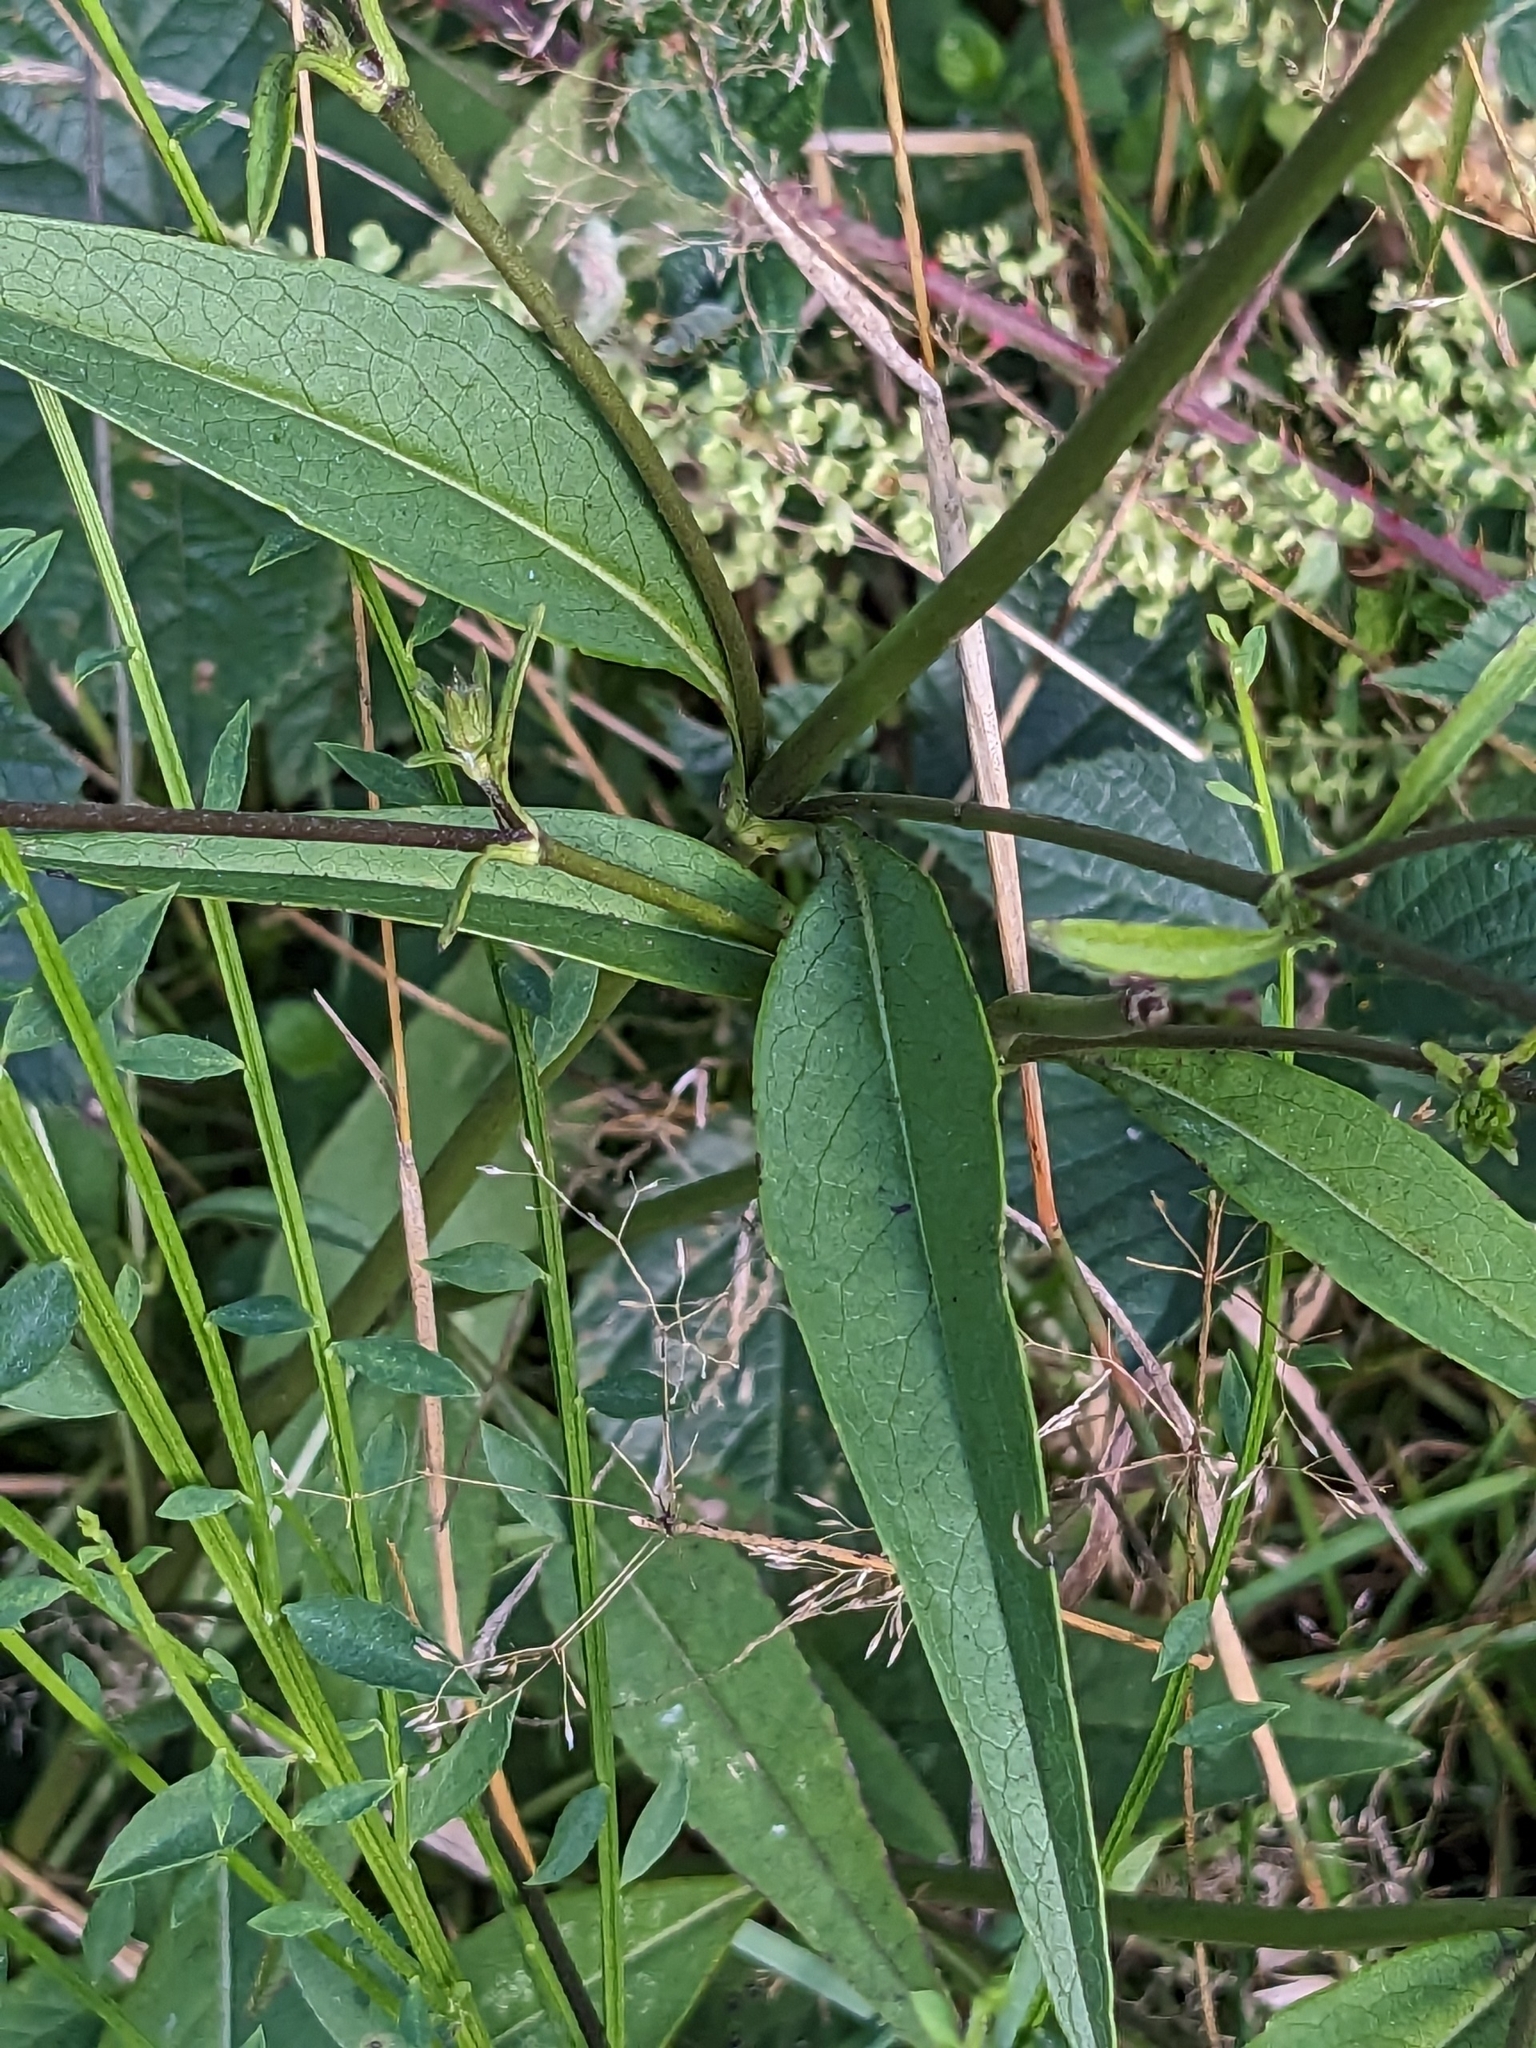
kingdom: Plantae
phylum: Tracheophyta
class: Magnoliopsida
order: Dipsacales
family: Caprifoliaceae
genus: Succisa
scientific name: Succisa pratensis
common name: Devil's-bit
